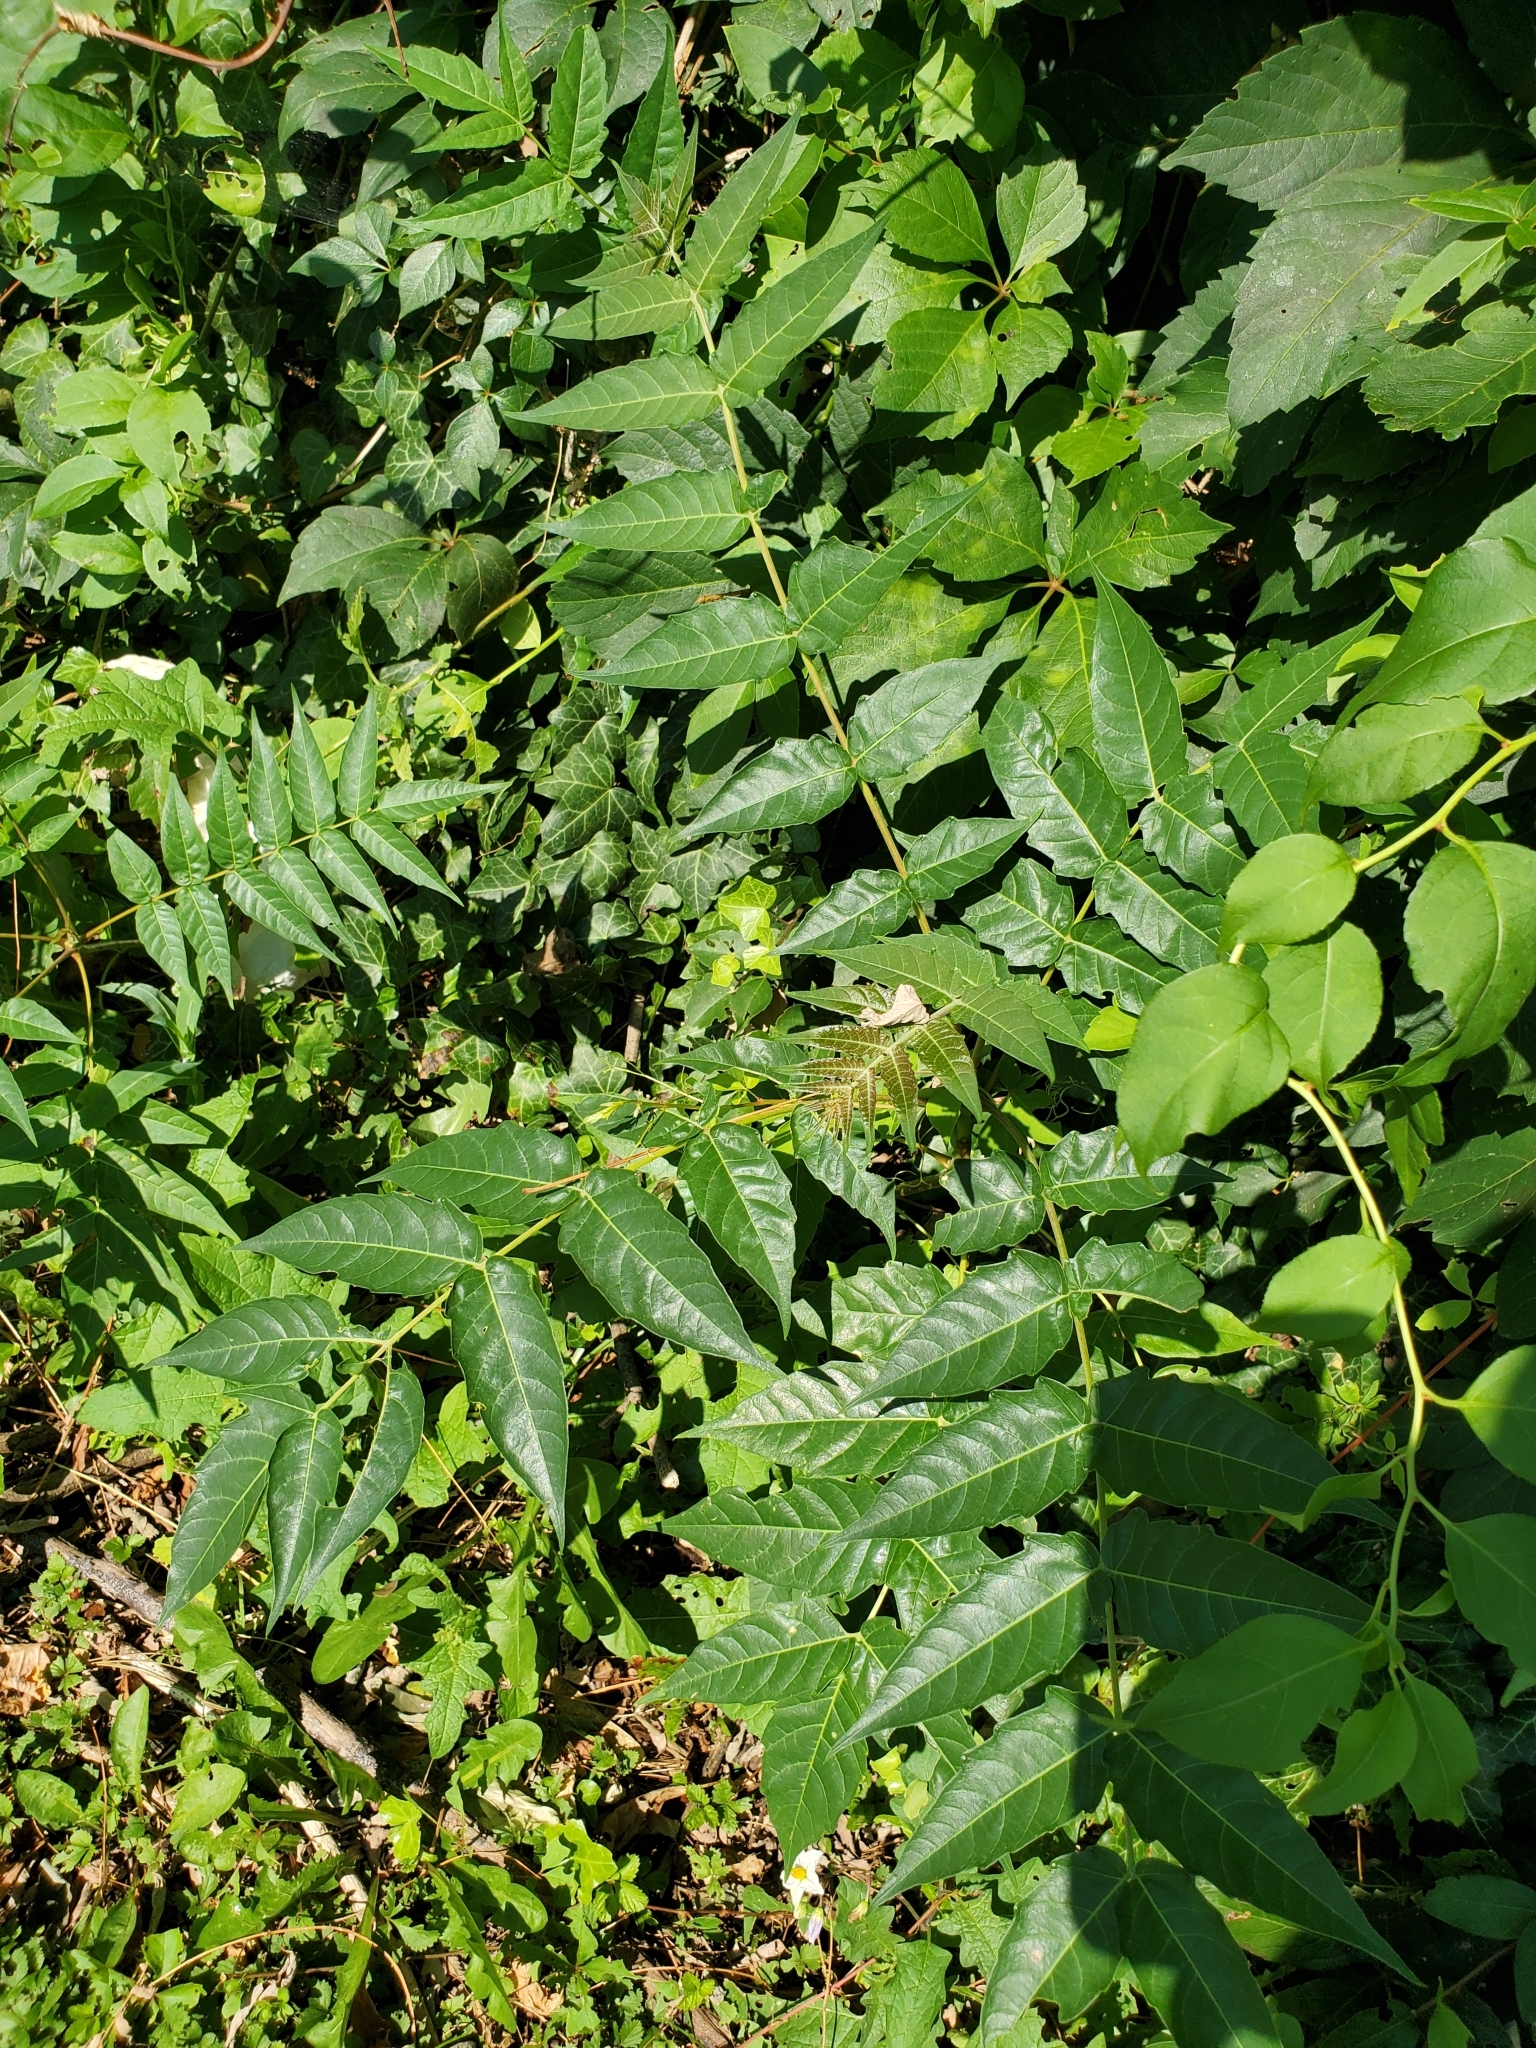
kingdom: Plantae
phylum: Tracheophyta
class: Magnoliopsida
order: Sapindales
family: Simaroubaceae
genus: Ailanthus
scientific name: Ailanthus altissima
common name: Tree-of-heaven
